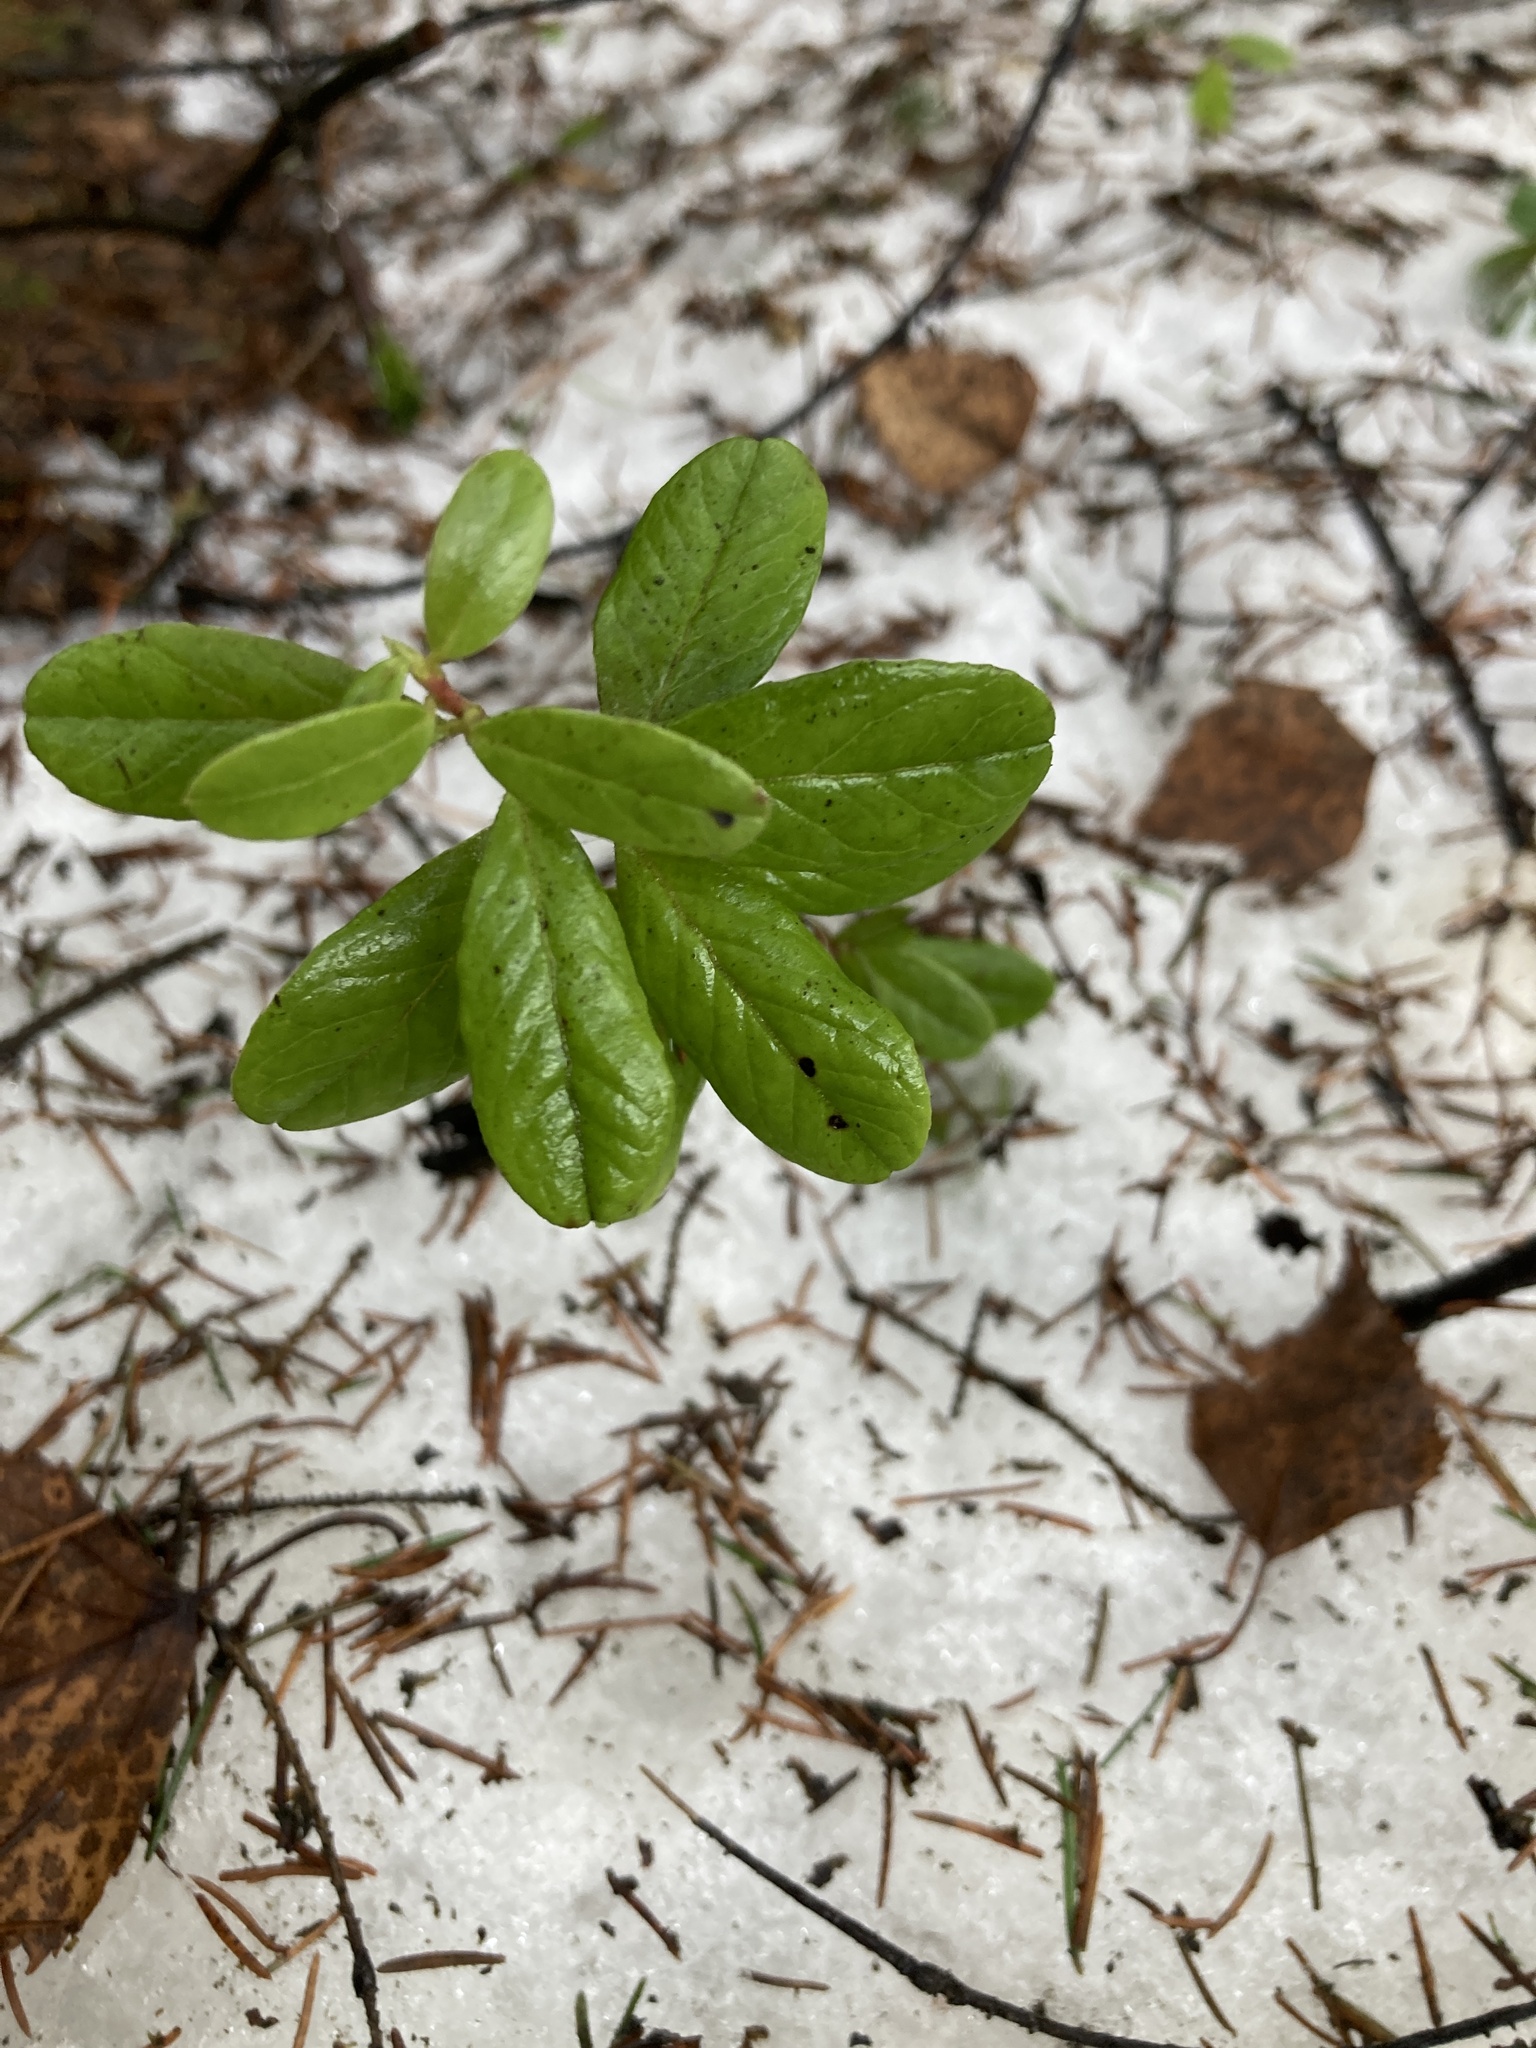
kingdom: Plantae
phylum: Tracheophyta
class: Magnoliopsida
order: Ericales
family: Ericaceae
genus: Vaccinium
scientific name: Vaccinium vitis-idaea
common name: Cowberry
